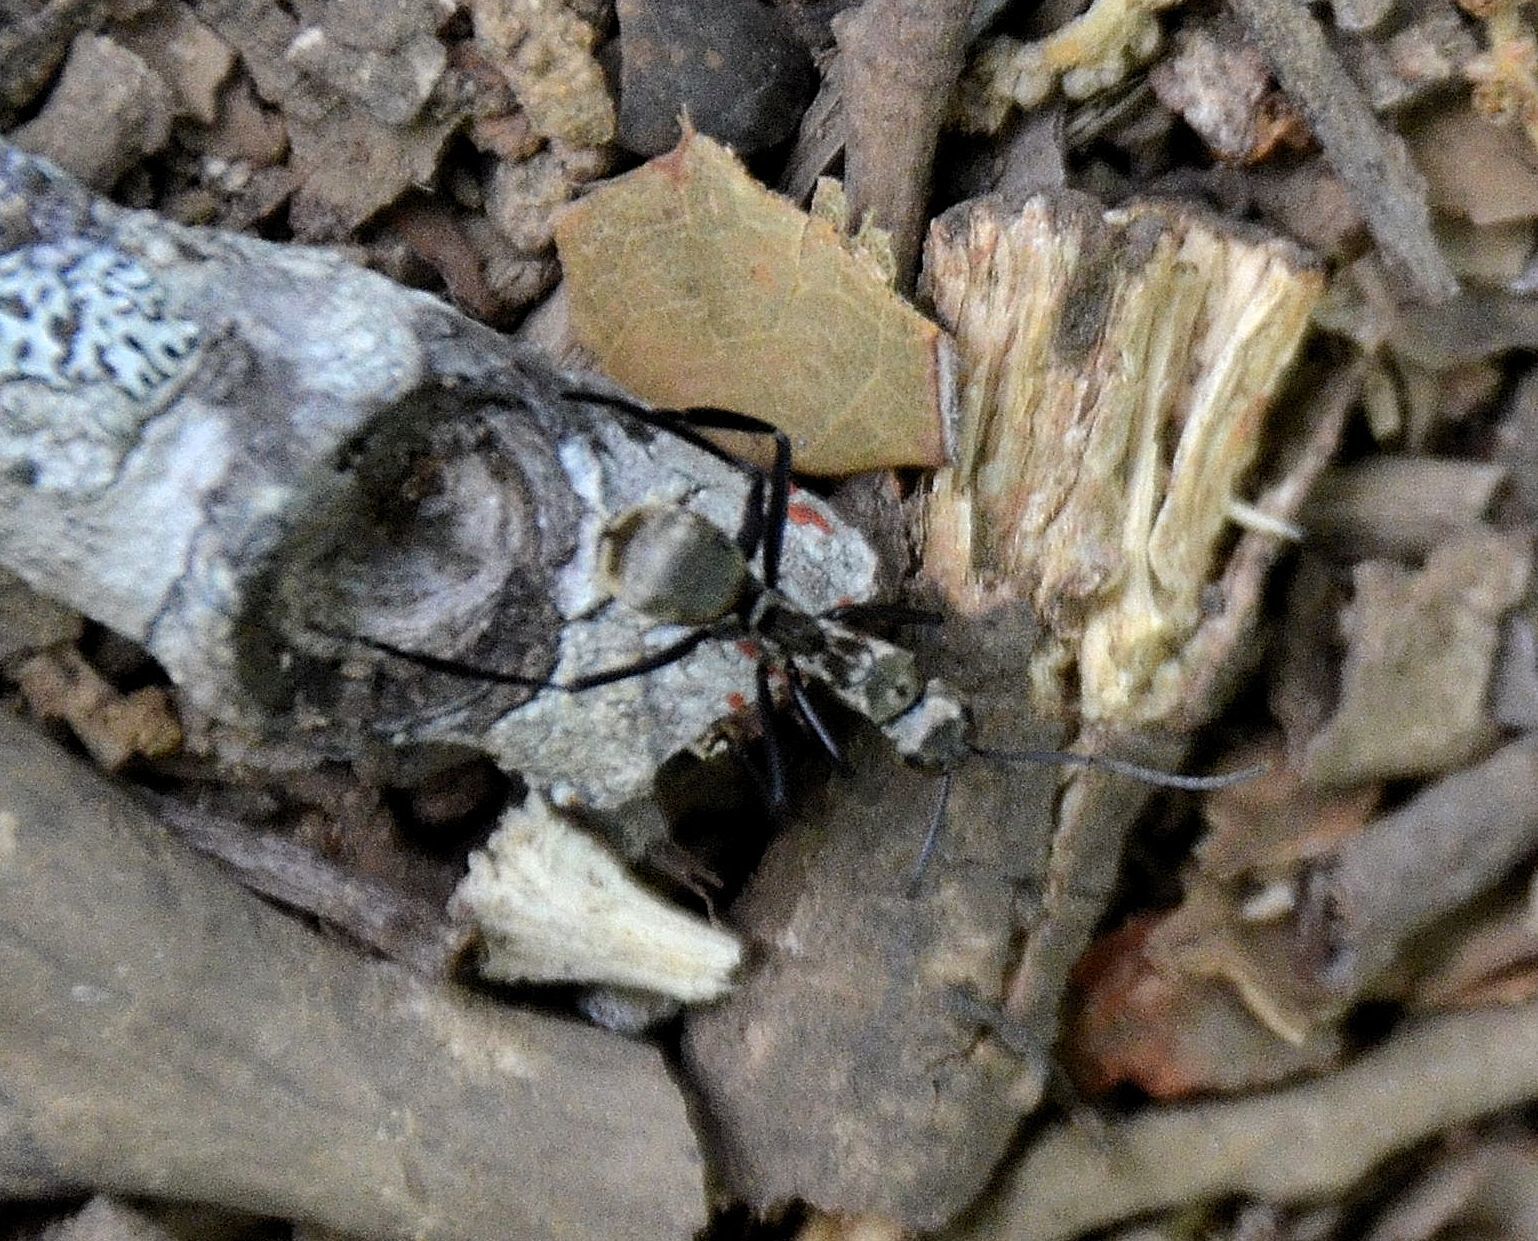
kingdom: Animalia
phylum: Arthropoda
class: Insecta
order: Hymenoptera
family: Formicidae
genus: Camponotus
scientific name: Camponotus sericeiventris
